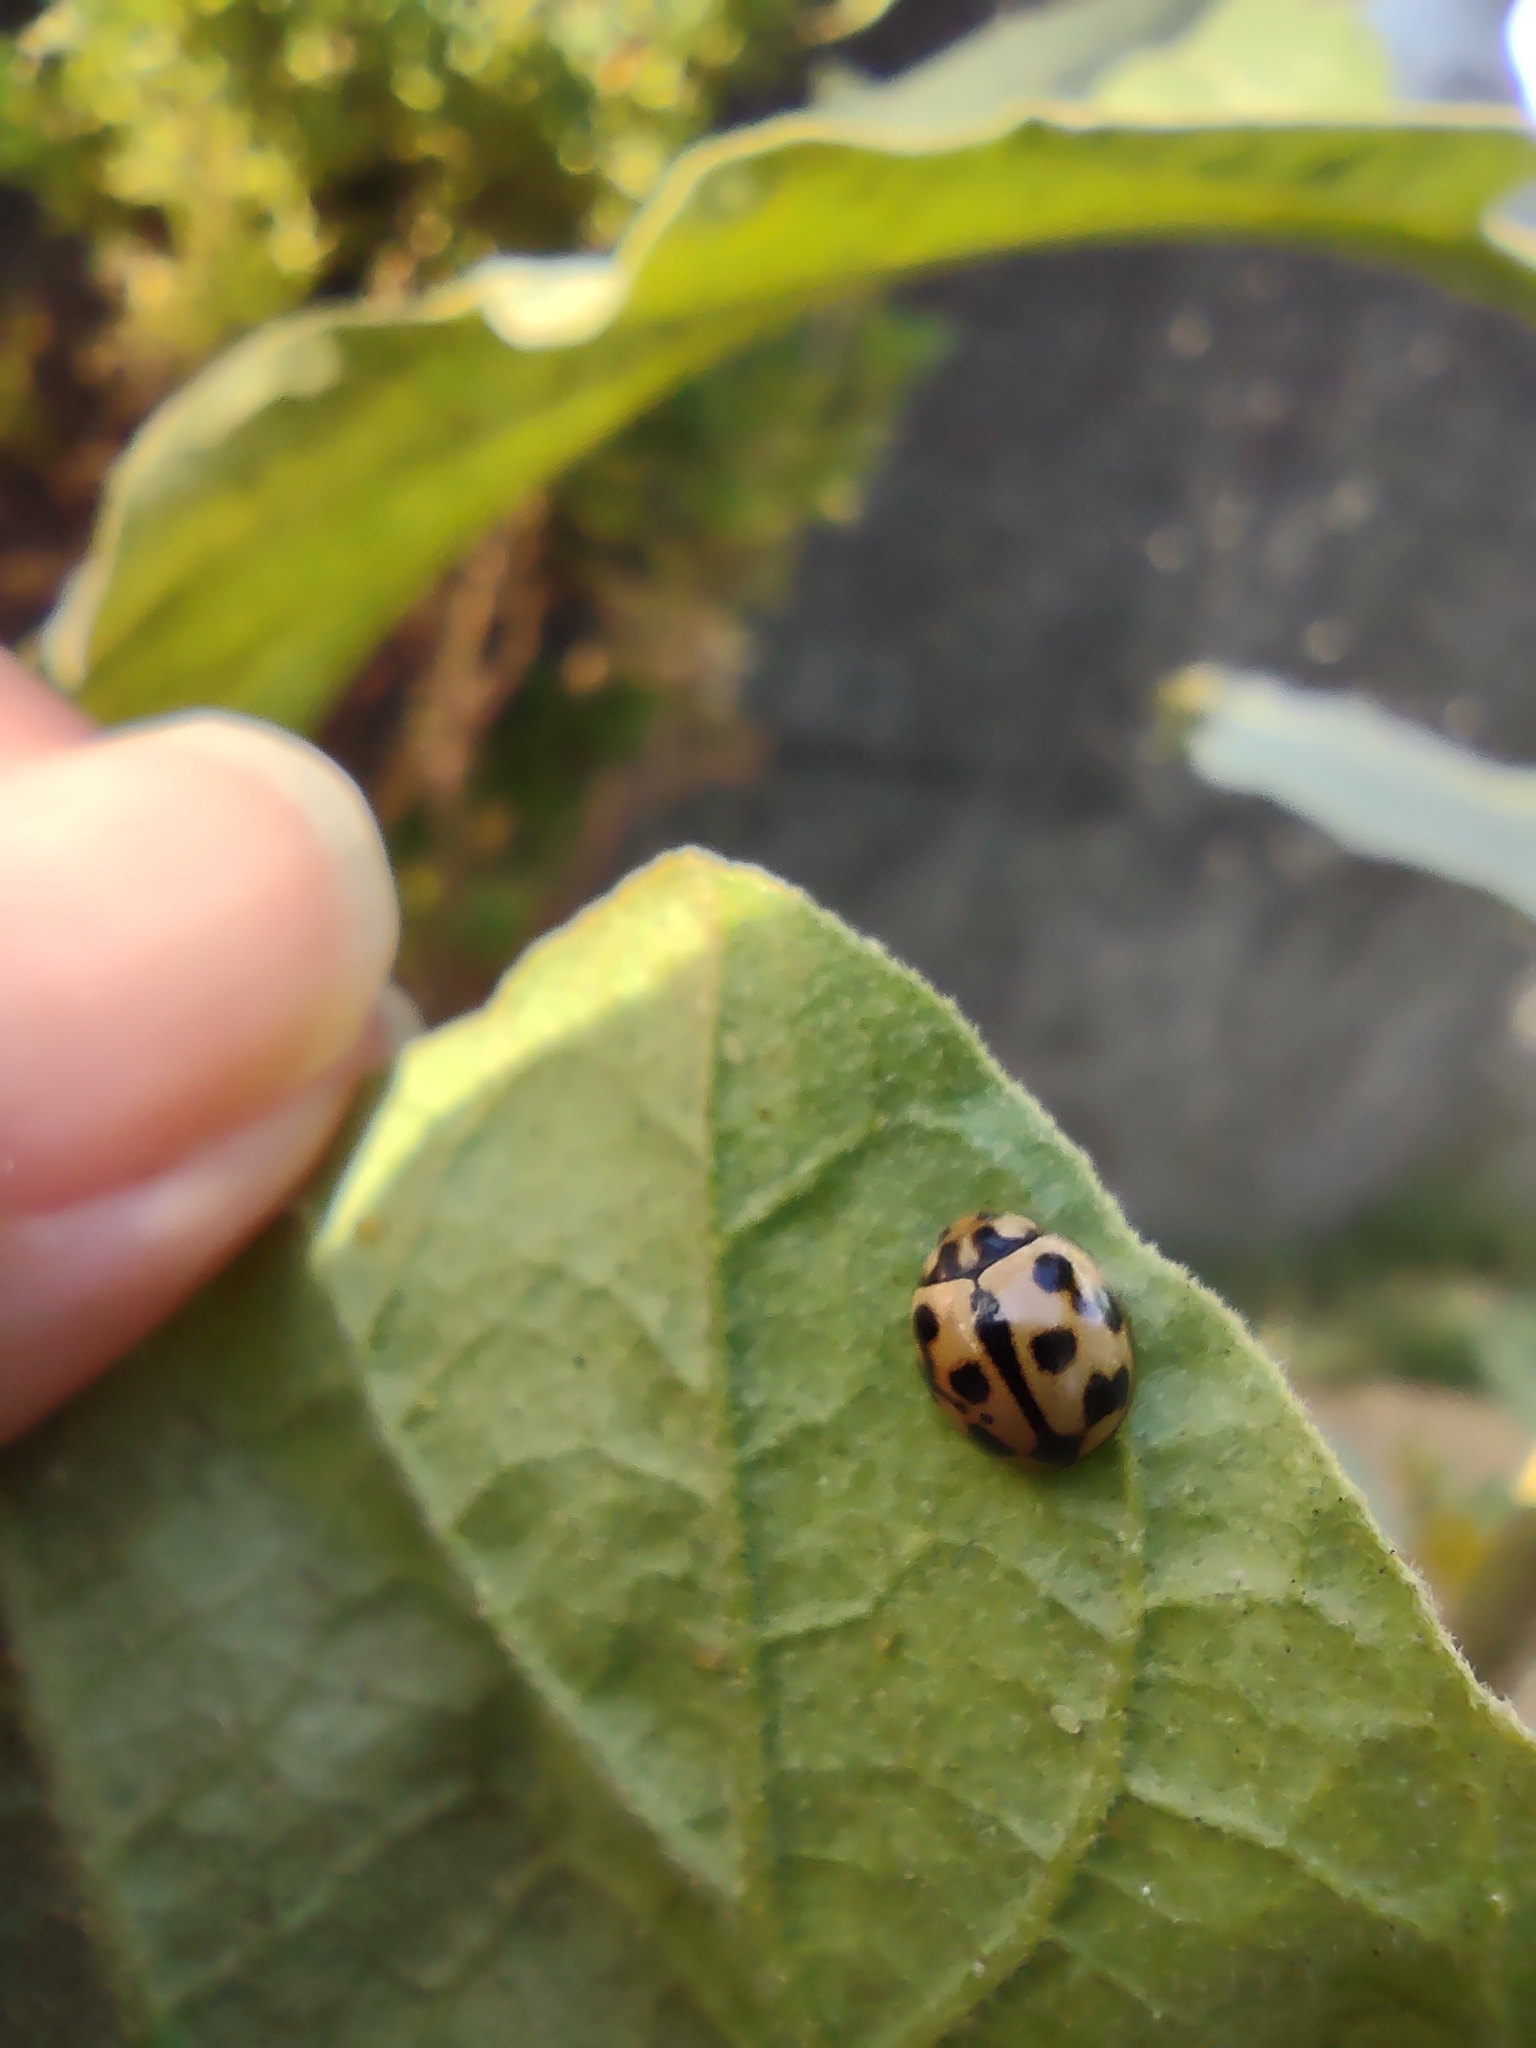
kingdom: Animalia
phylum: Arthropoda
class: Insecta
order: Coleoptera
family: Coccinellidae
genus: Coelophora
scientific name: Coelophora inaequalis
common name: Common australian lady beetle
